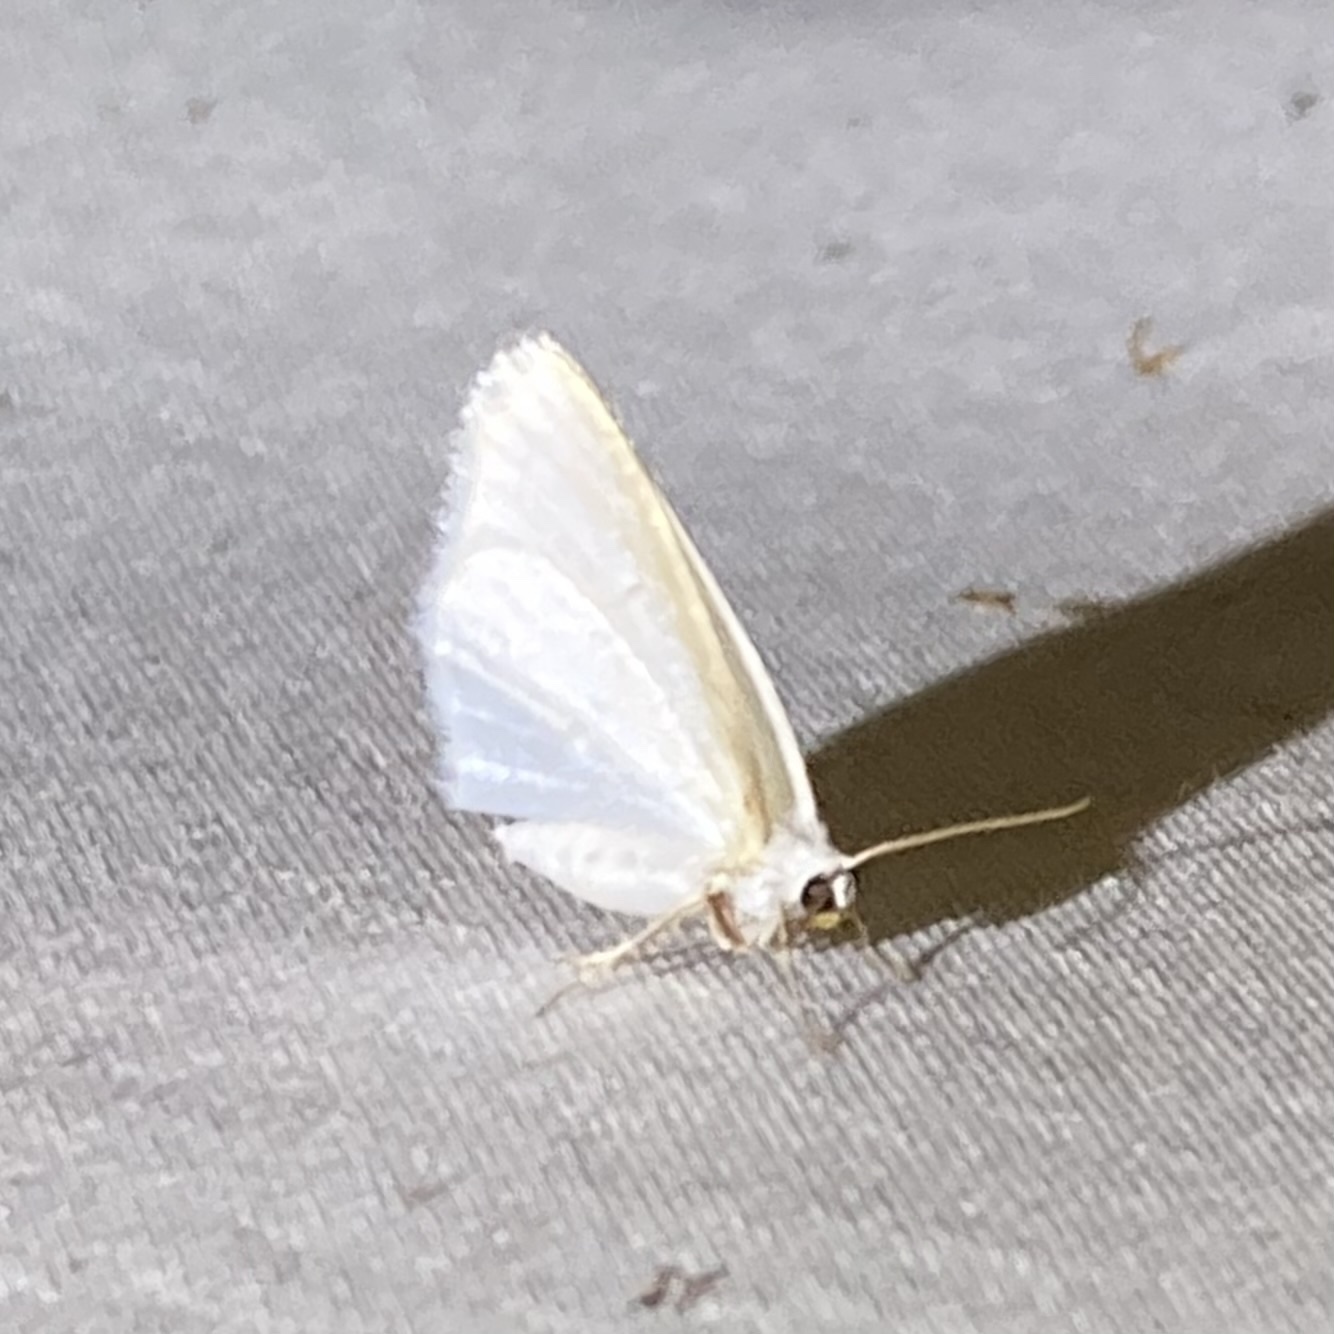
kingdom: Animalia
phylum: Arthropoda
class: Insecta
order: Lepidoptera
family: Geometridae
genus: Lomographa
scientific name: Lomographa vestaliata
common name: White spring moth
